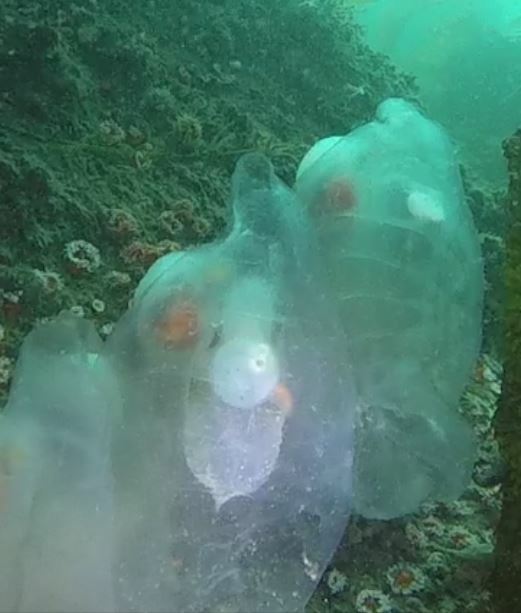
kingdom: Animalia
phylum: Chordata
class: Thaliacea
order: Salpida
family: Salpidae
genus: Thetys
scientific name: Thetys vagina
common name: Vagina salp
